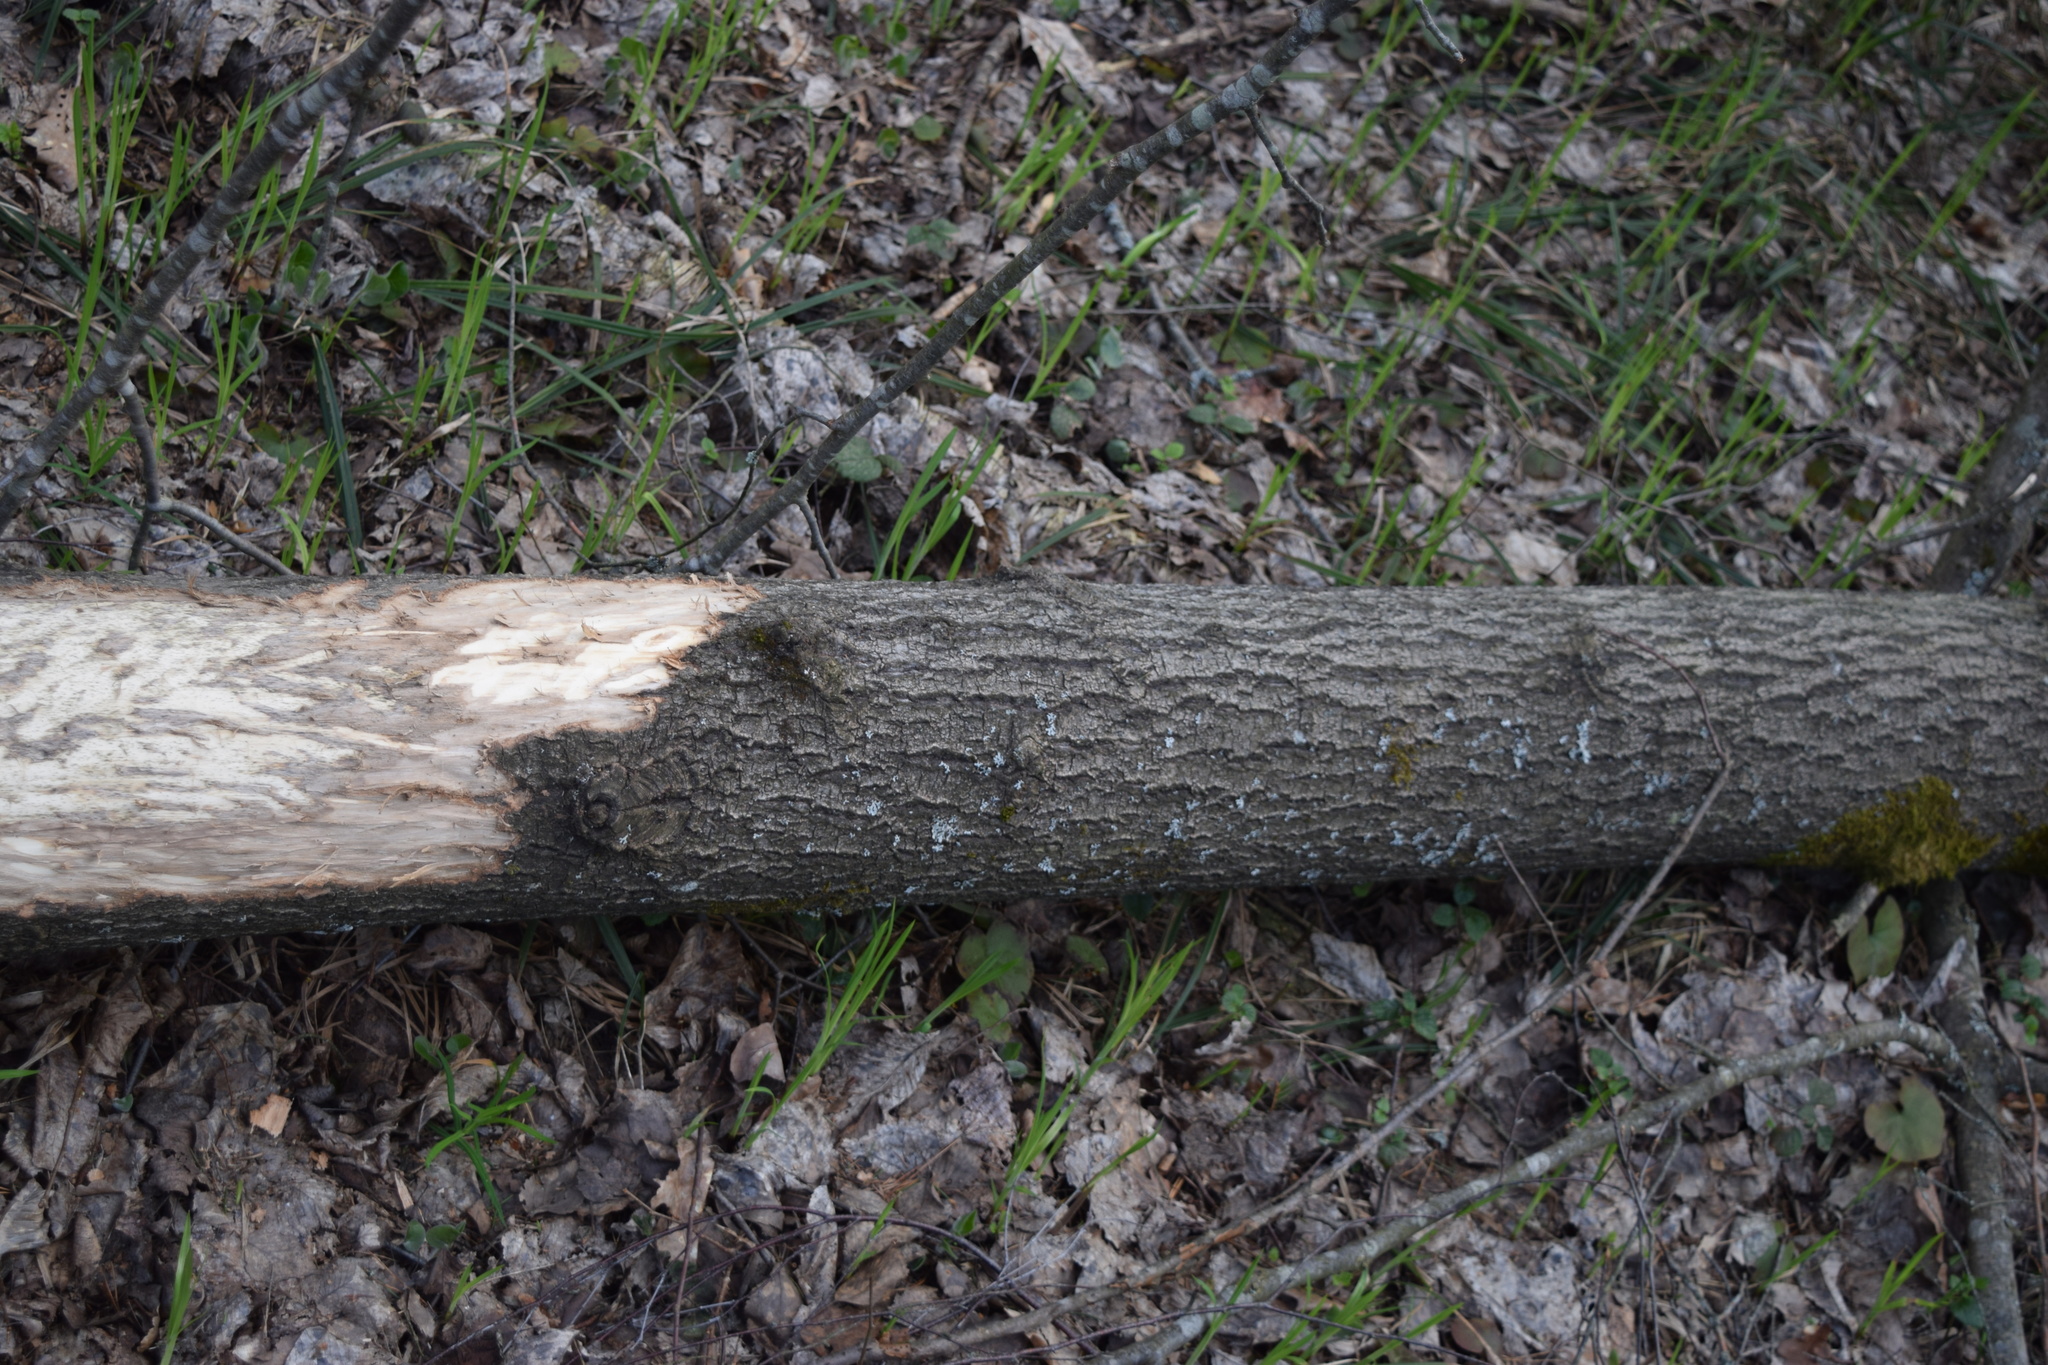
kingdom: Plantae
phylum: Tracheophyta
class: Magnoliopsida
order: Malpighiales
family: Salicaceae
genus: Populus
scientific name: Populus tremula
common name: European aspen
